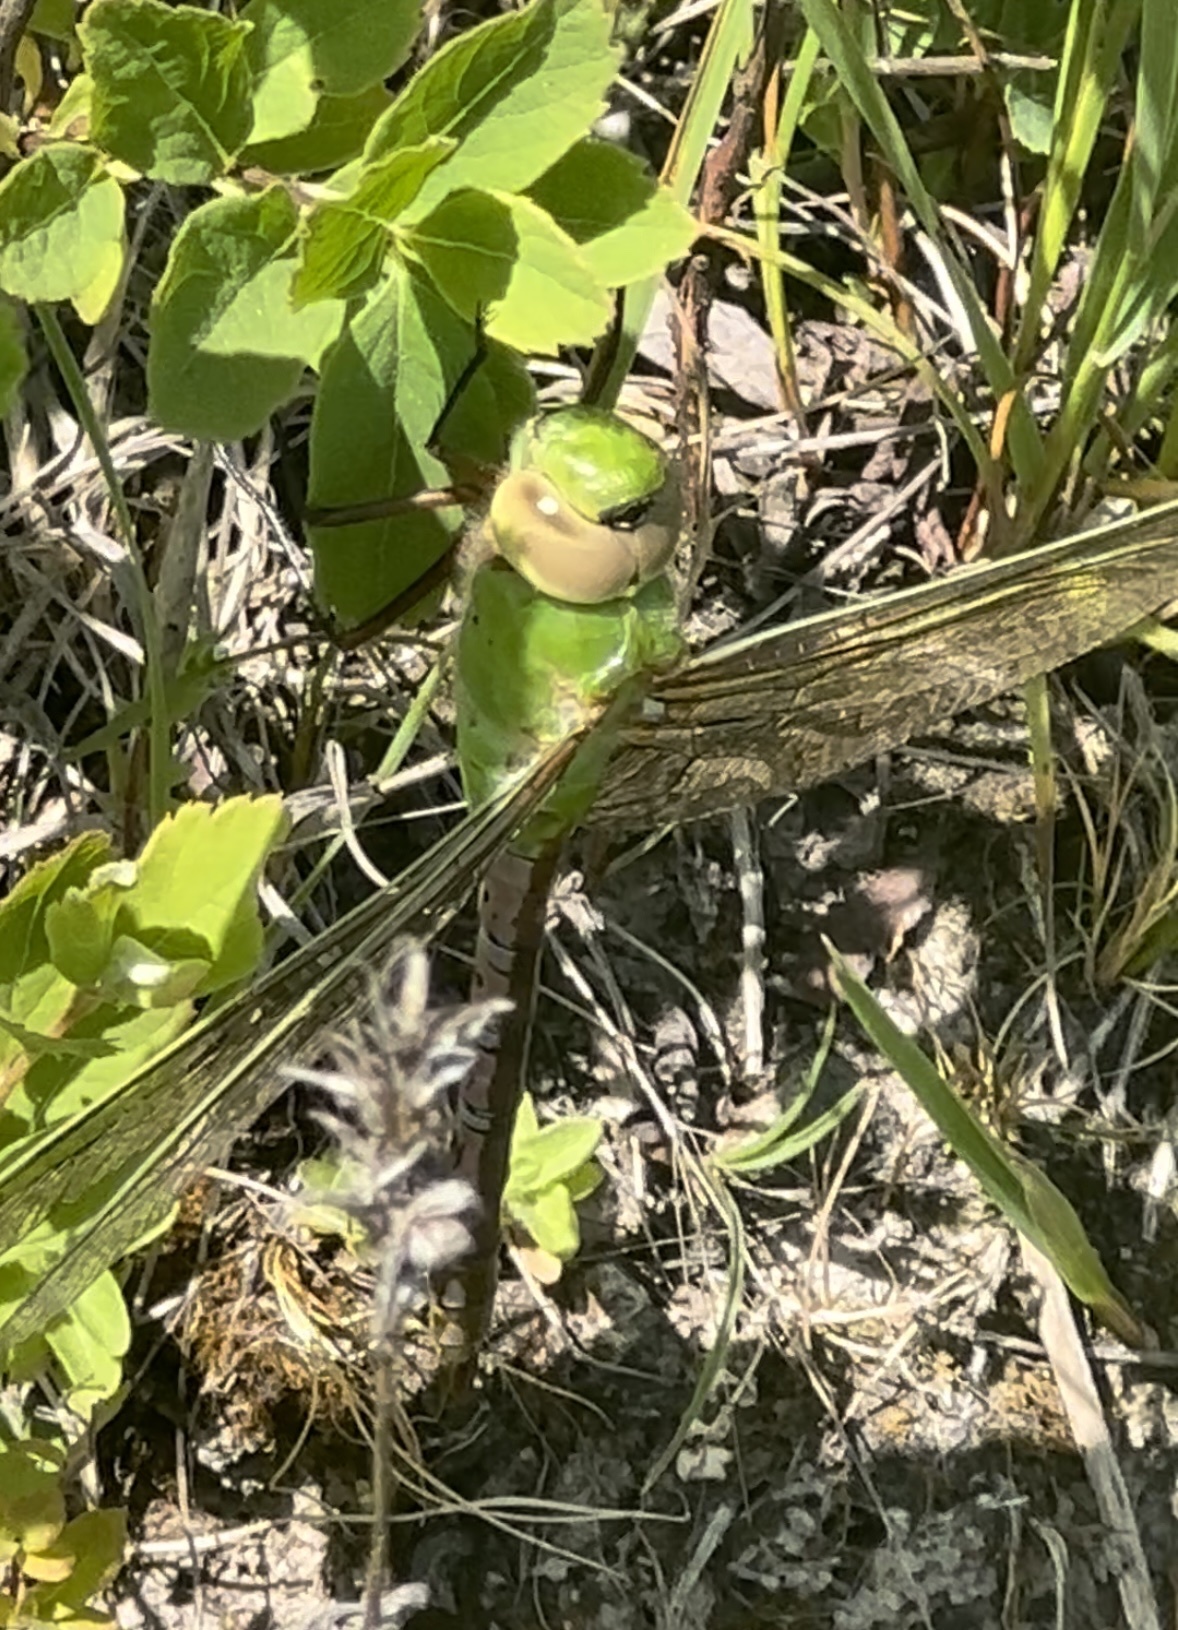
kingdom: Animalia
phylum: Arthropoda
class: Insecta
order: Odonata
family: Aeshnidae
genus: Anax
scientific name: Anax junius
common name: Common green darner
